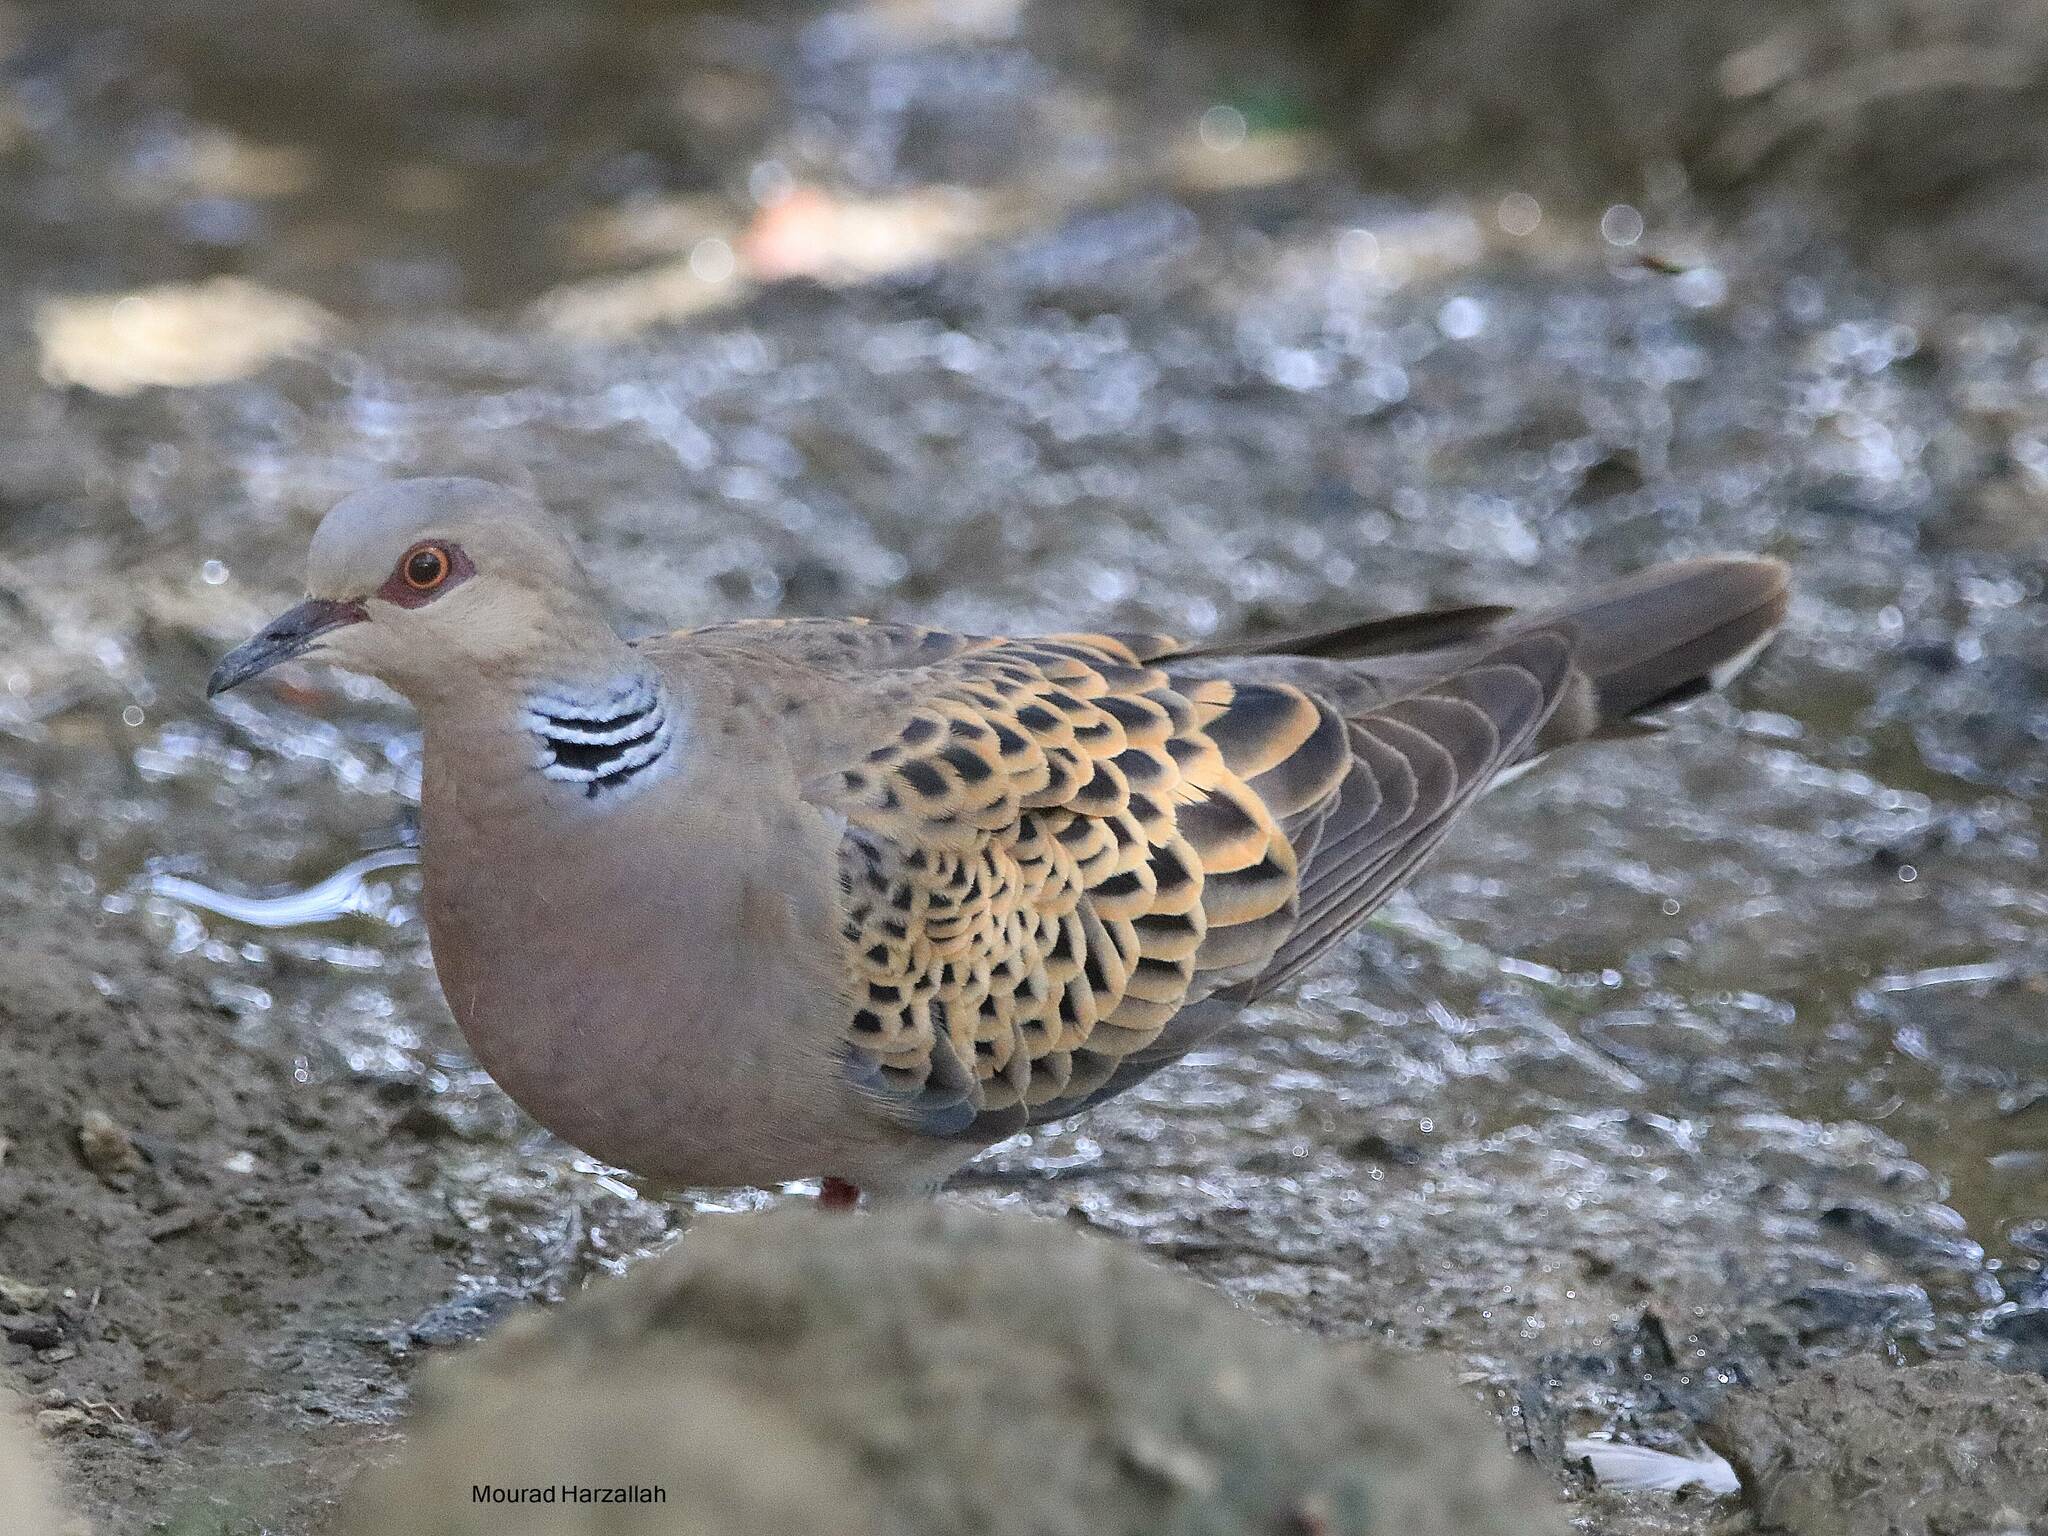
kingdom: Animalia
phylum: Chordata
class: Aves
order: Columbiformes
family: Columbidae
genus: Streptopelia
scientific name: Streptopelia turtur
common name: European turtle dove
